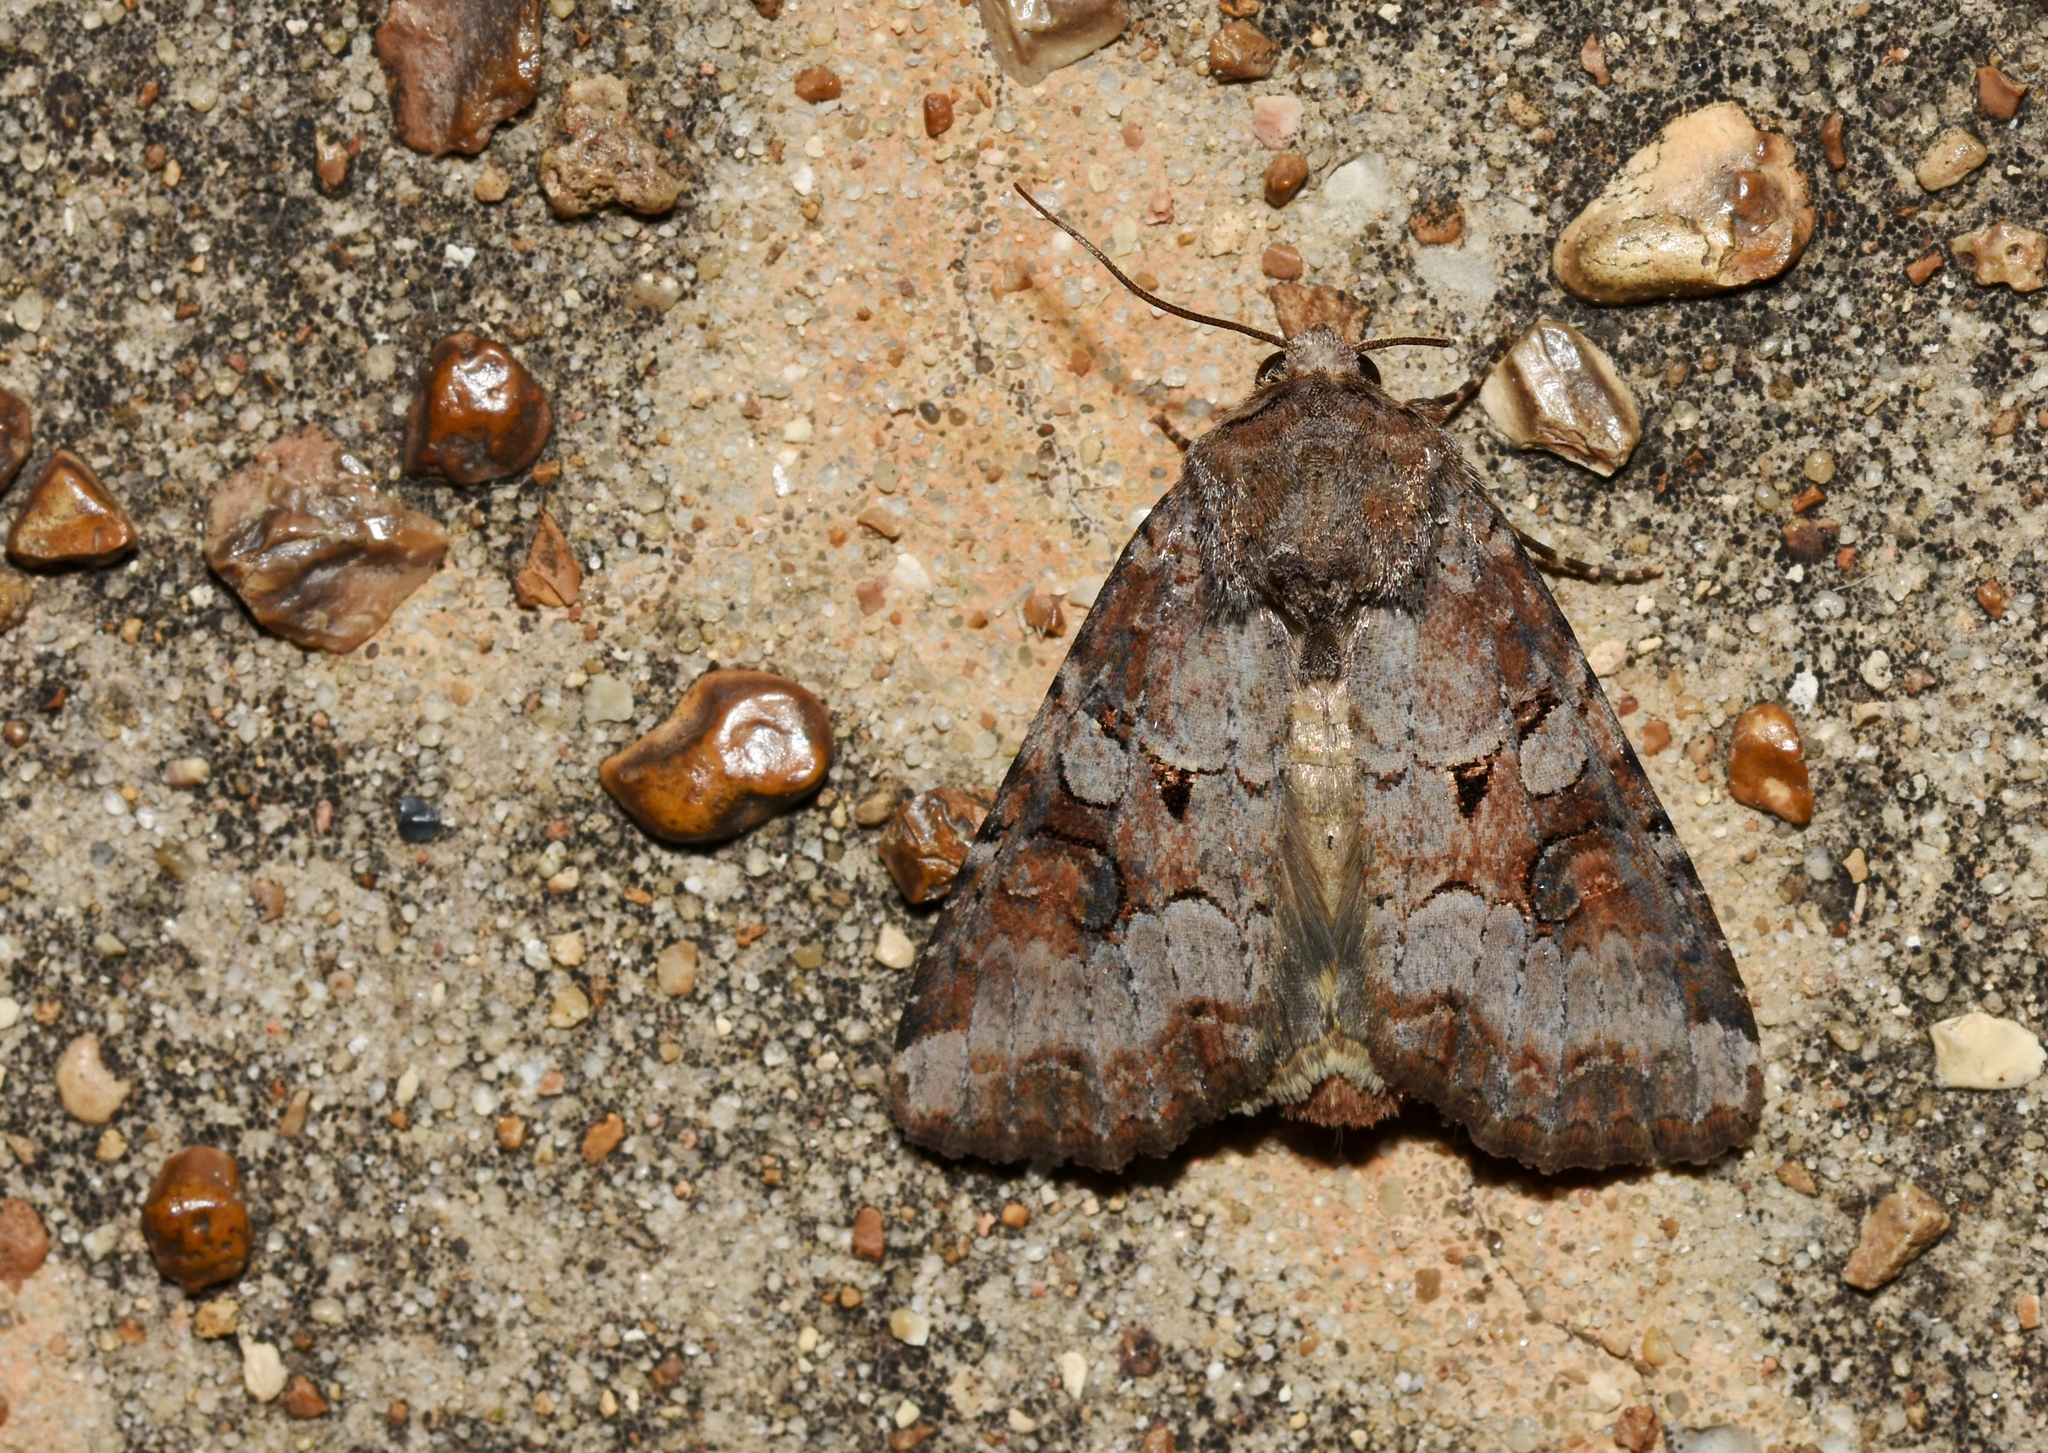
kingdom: Animalia
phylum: Arthropoda
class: Insecta
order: Lepidoptera
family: Noctuidae
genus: Trichordestra
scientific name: Trichordestra legitima
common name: Striped garden caterpillar
